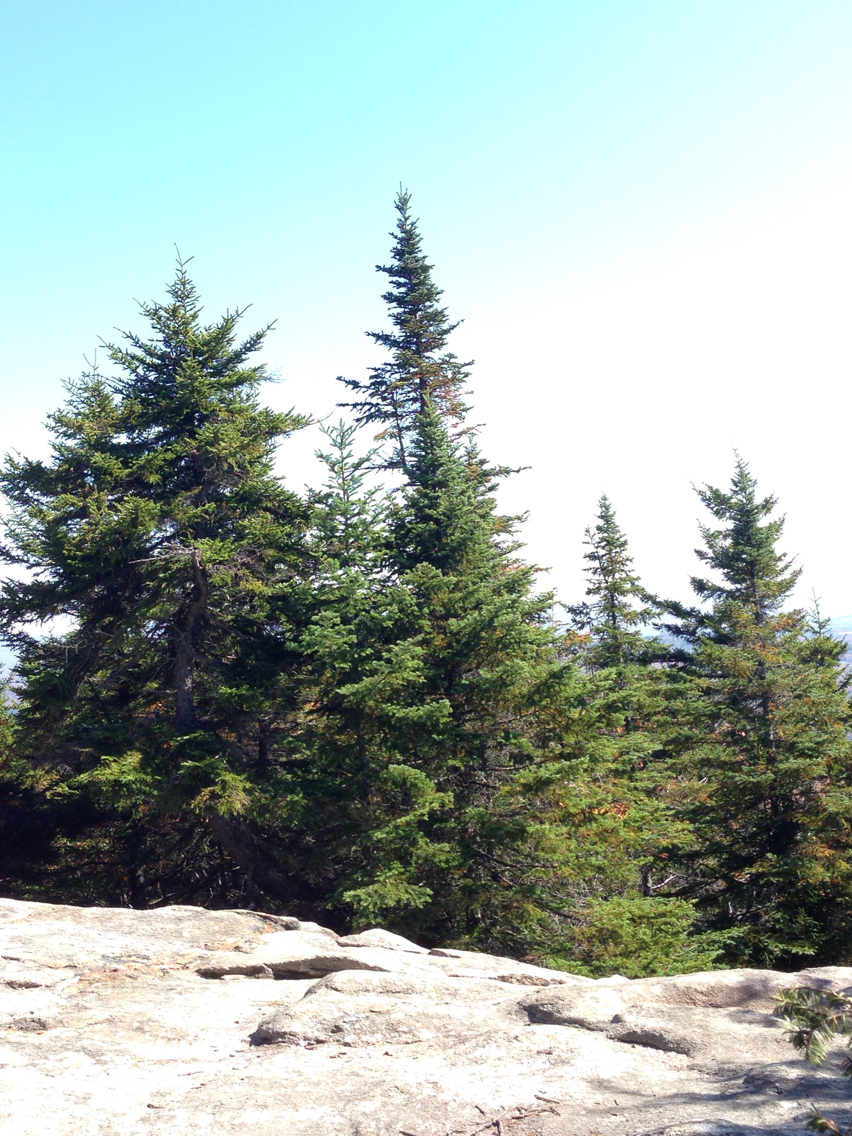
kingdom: Plantae
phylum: Tracheophyta
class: Pinopsida
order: Pinales
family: Pinaceae
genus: Abies
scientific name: Abies balsamea
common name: Balsam fir
